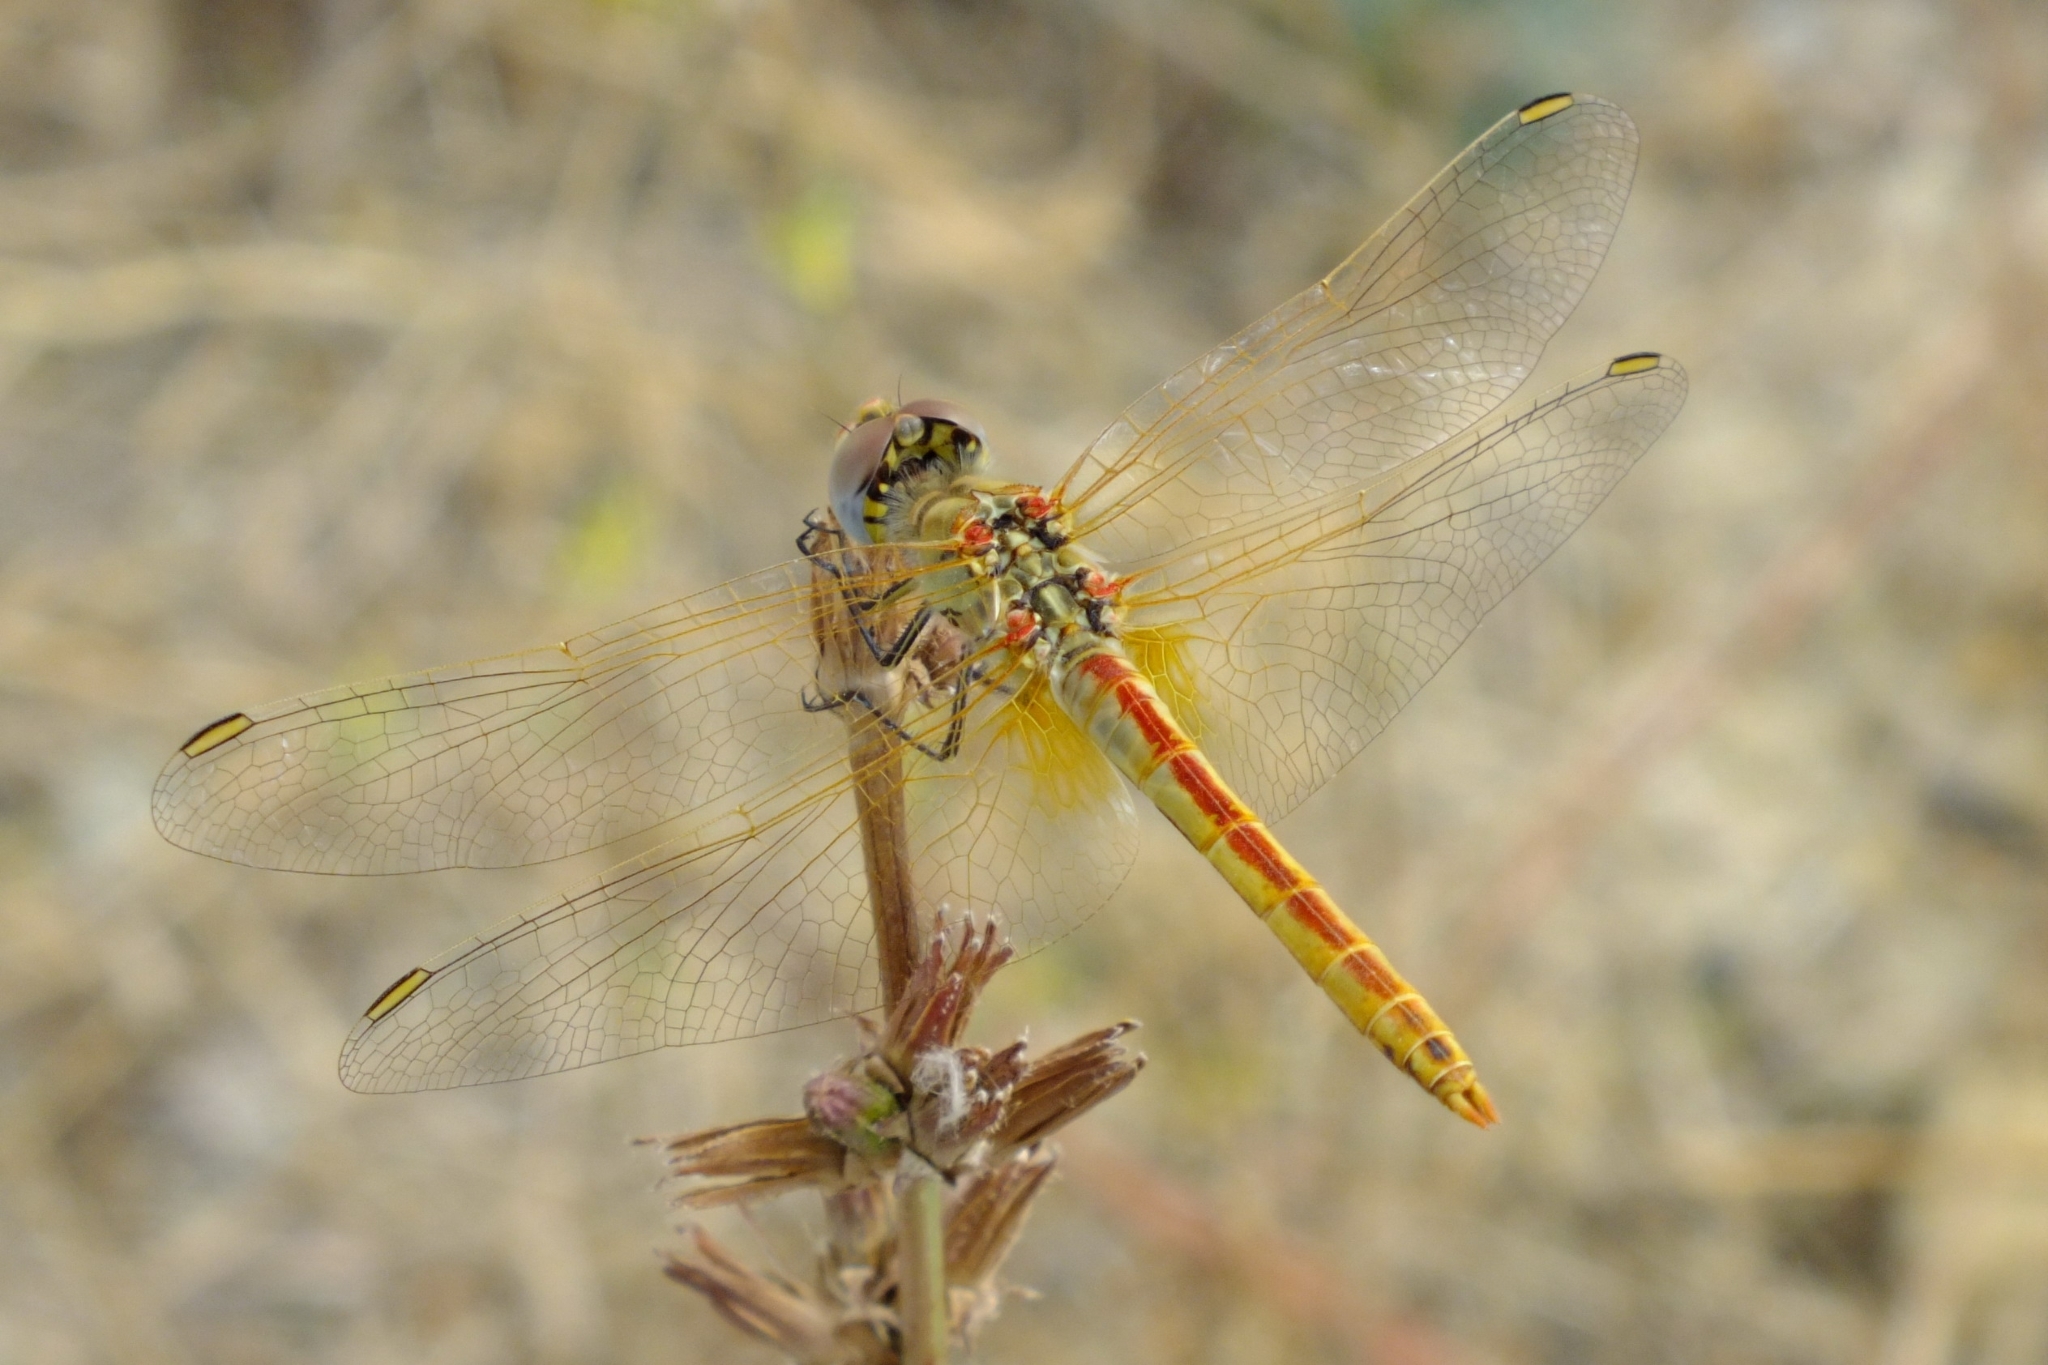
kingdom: Animalia
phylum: Arthropoda
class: Insecta
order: Odonata
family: Libellulidae
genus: Sympetrum
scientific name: Sympetrum fonscolombii
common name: Red-veined darter
